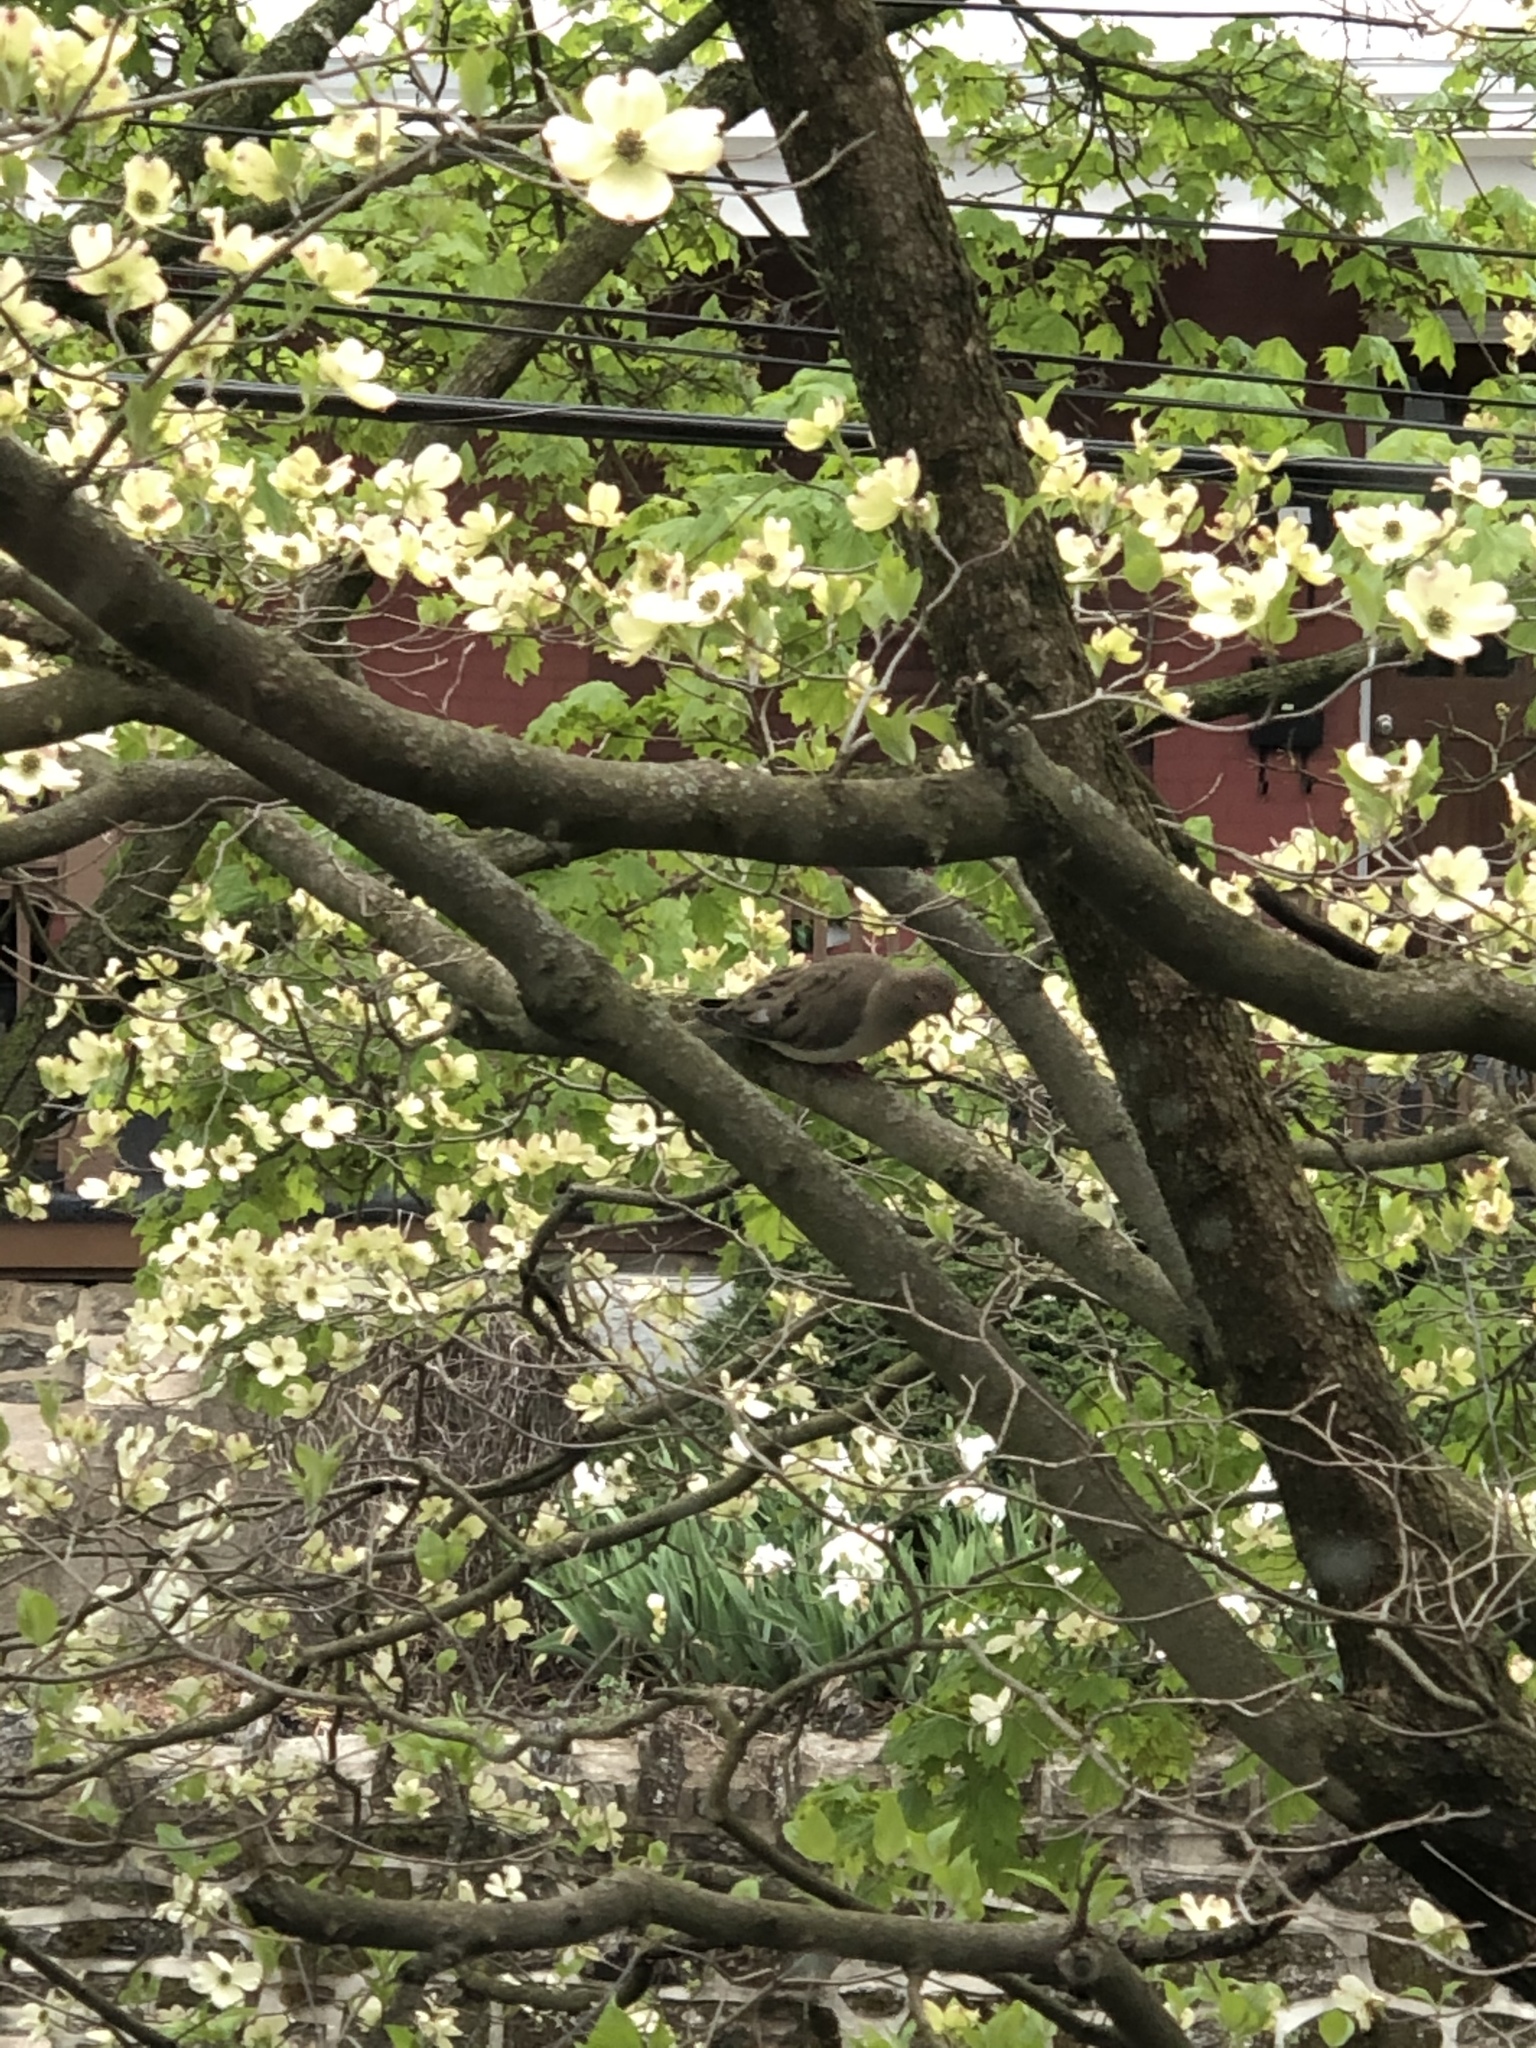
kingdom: Animalia
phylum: Chordata
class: Aves
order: Columbiformes
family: Columbidae
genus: Zenaida
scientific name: Zenaida macroura
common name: Mourning dove
